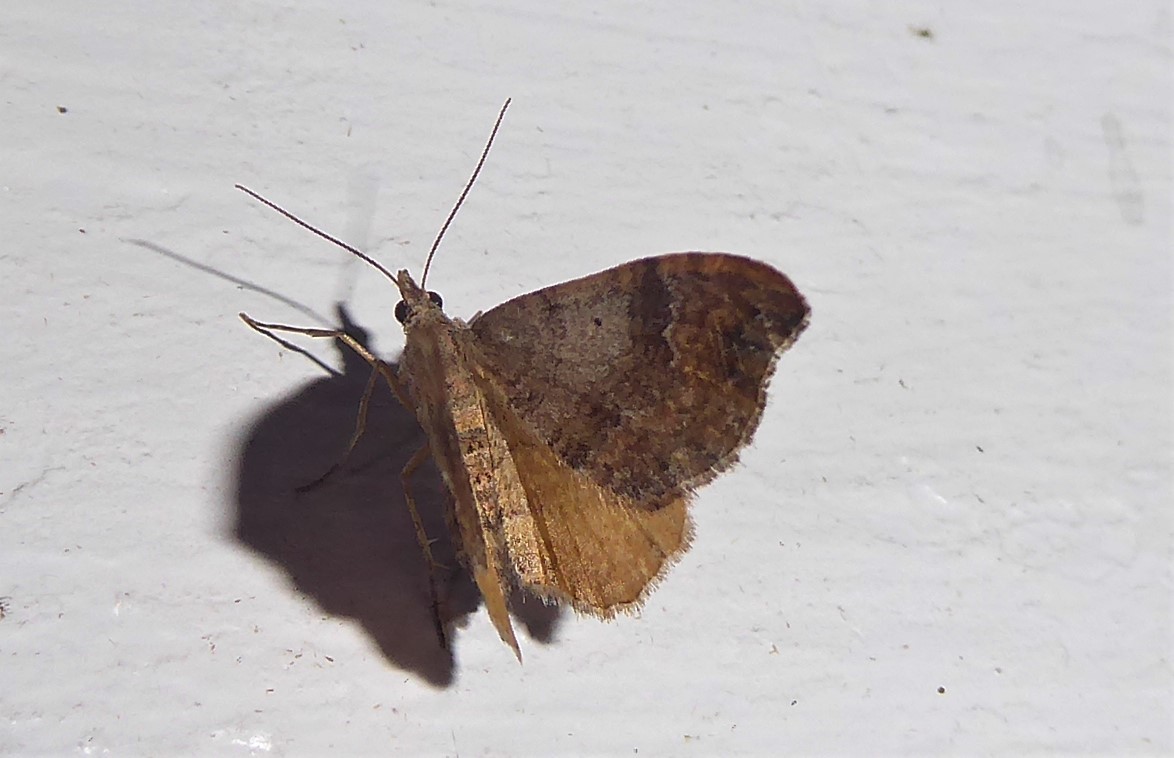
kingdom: Animalia
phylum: Arthropoda
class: Insecta
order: Lepidoptera
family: Geometridae
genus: Homodotis
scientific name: Homodotis megaspilata
